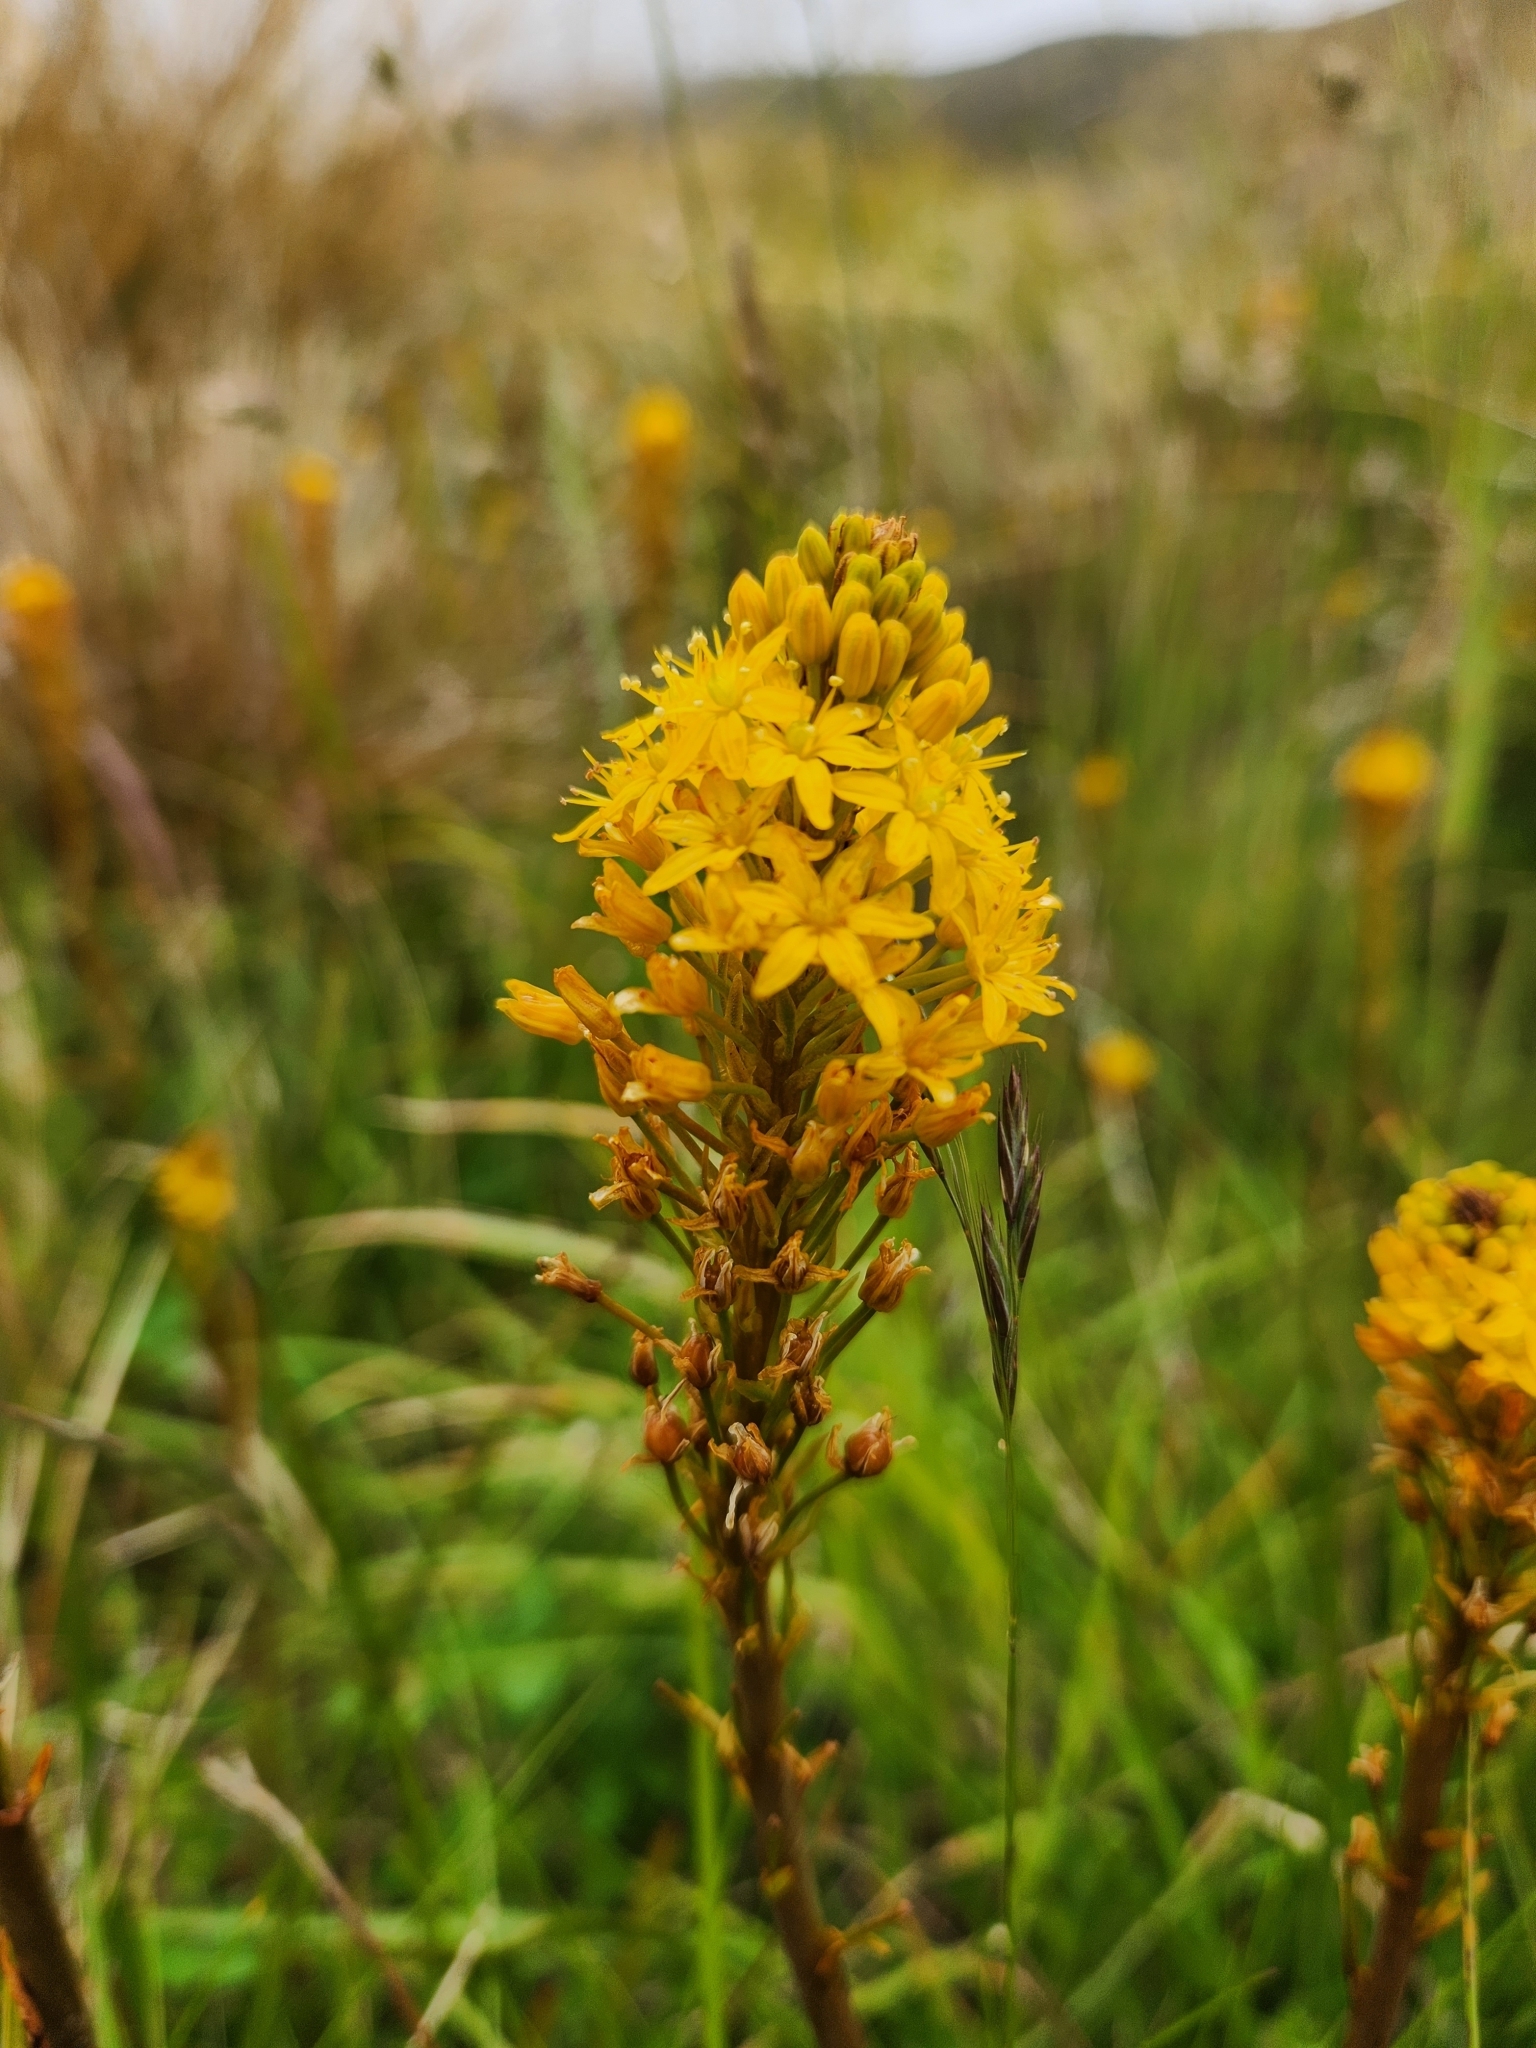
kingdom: Plantae
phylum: Tracheophyta
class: Liliopsida
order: Asparagales
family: Asphodelaceae
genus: Bulbinella
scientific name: Bulbinella angustifolia
